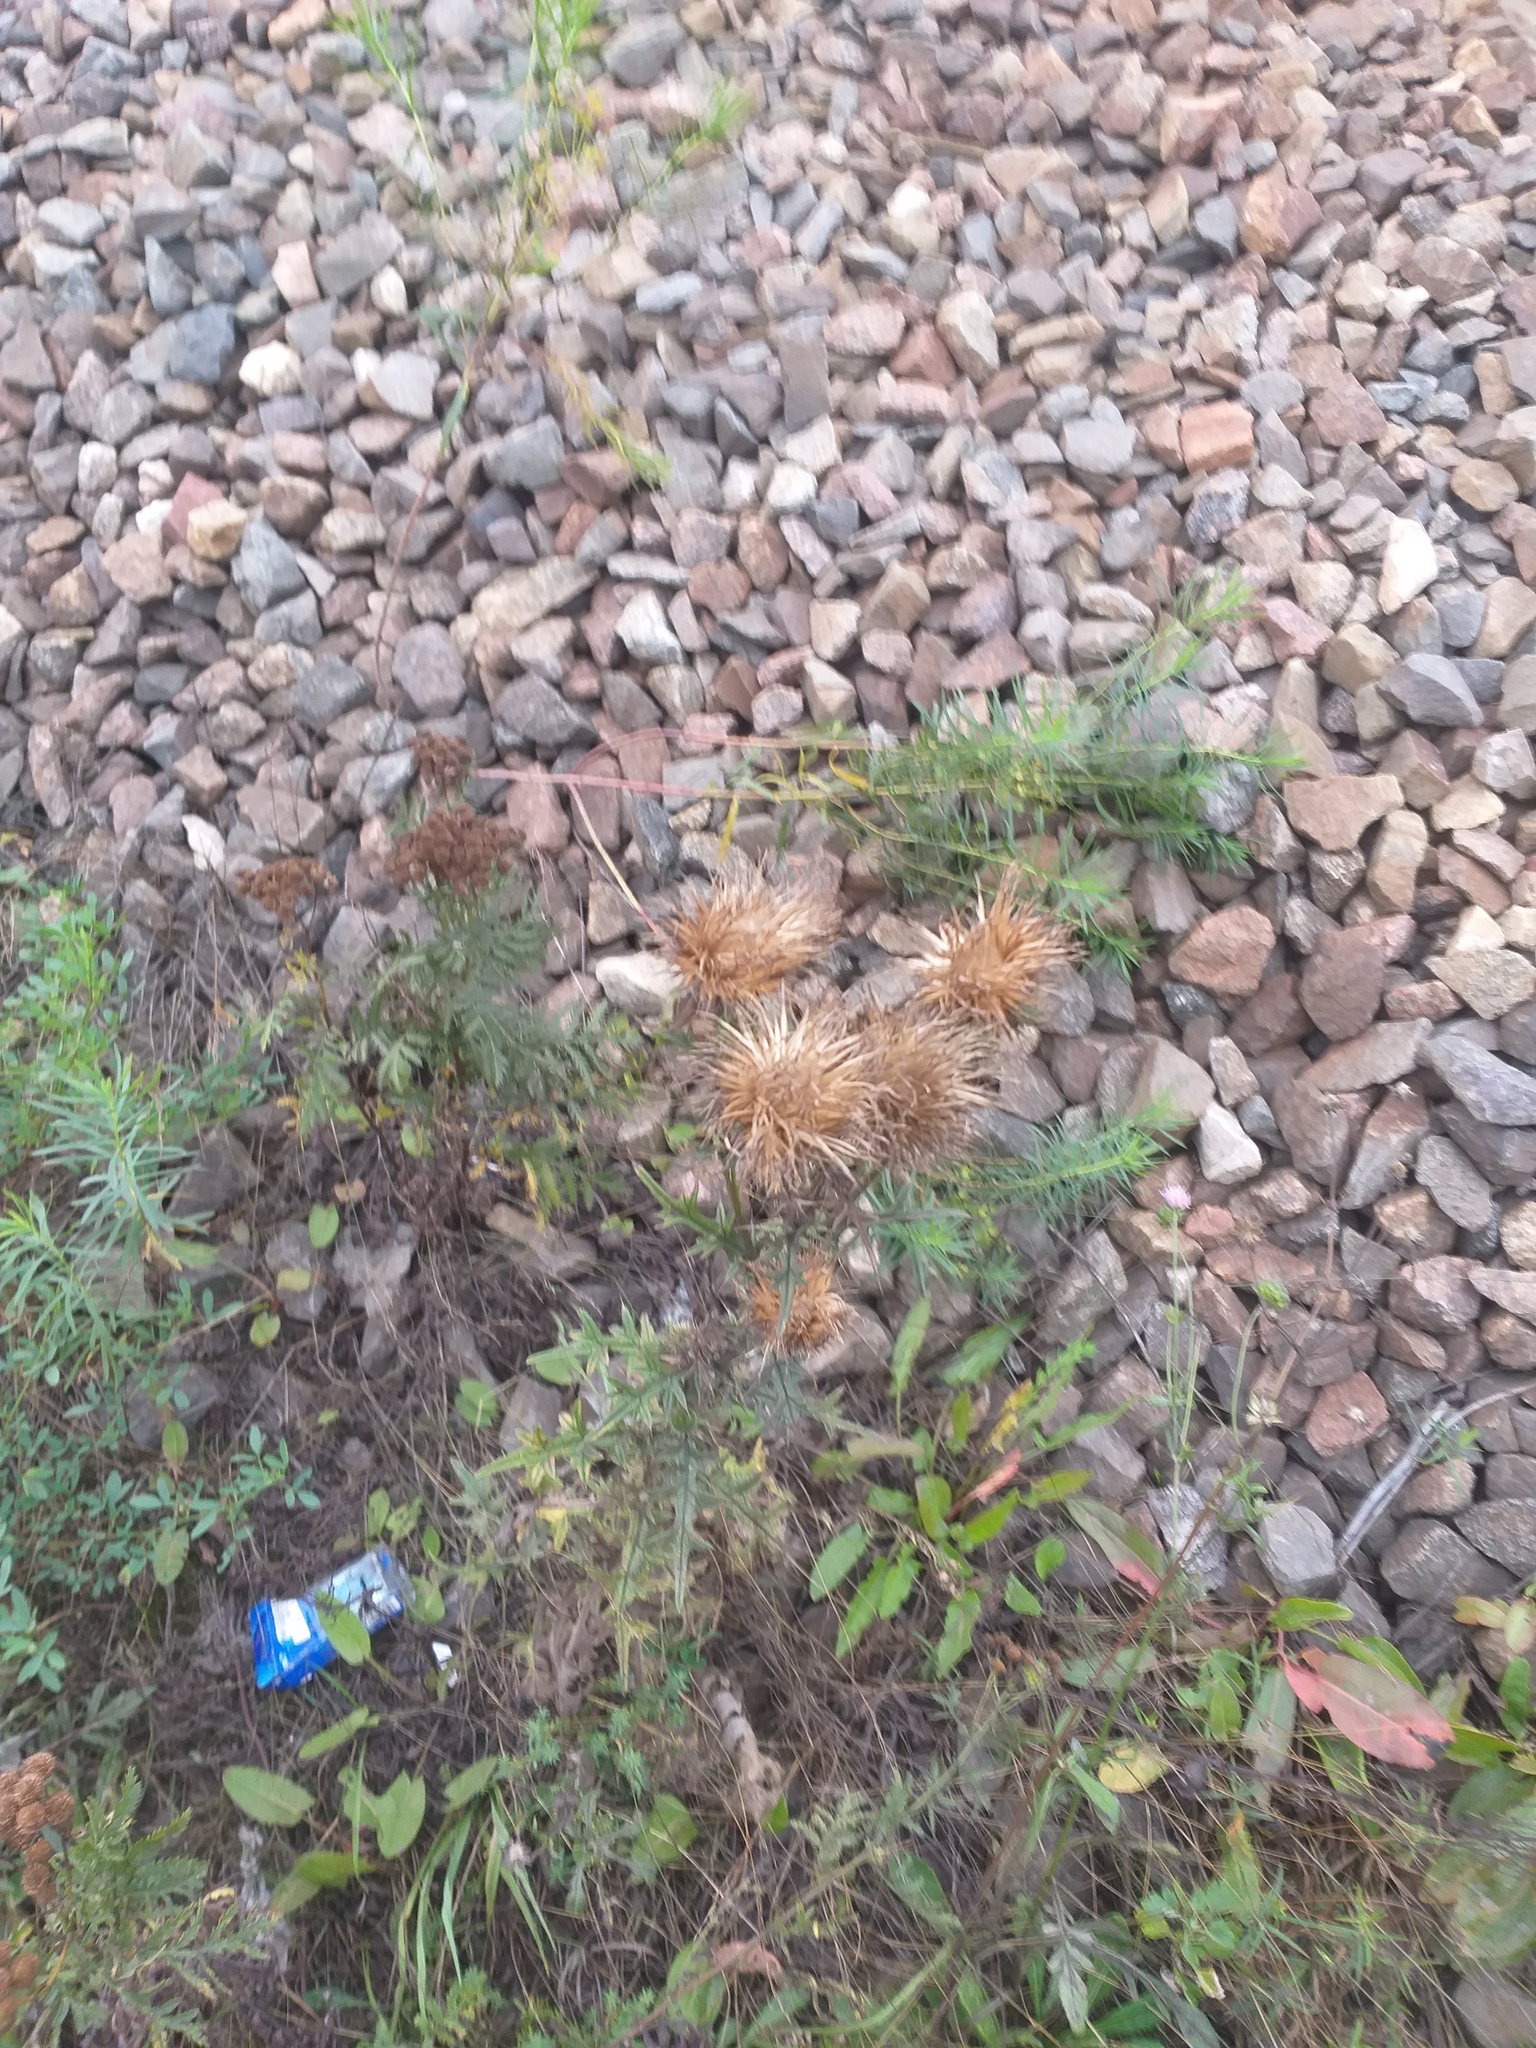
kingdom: Plantae
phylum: Tracheophyta
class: Magnoliopsida
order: Asterales
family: Asteraceae
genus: Cirsium
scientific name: Cirsium vulgare
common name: Bull thistle
